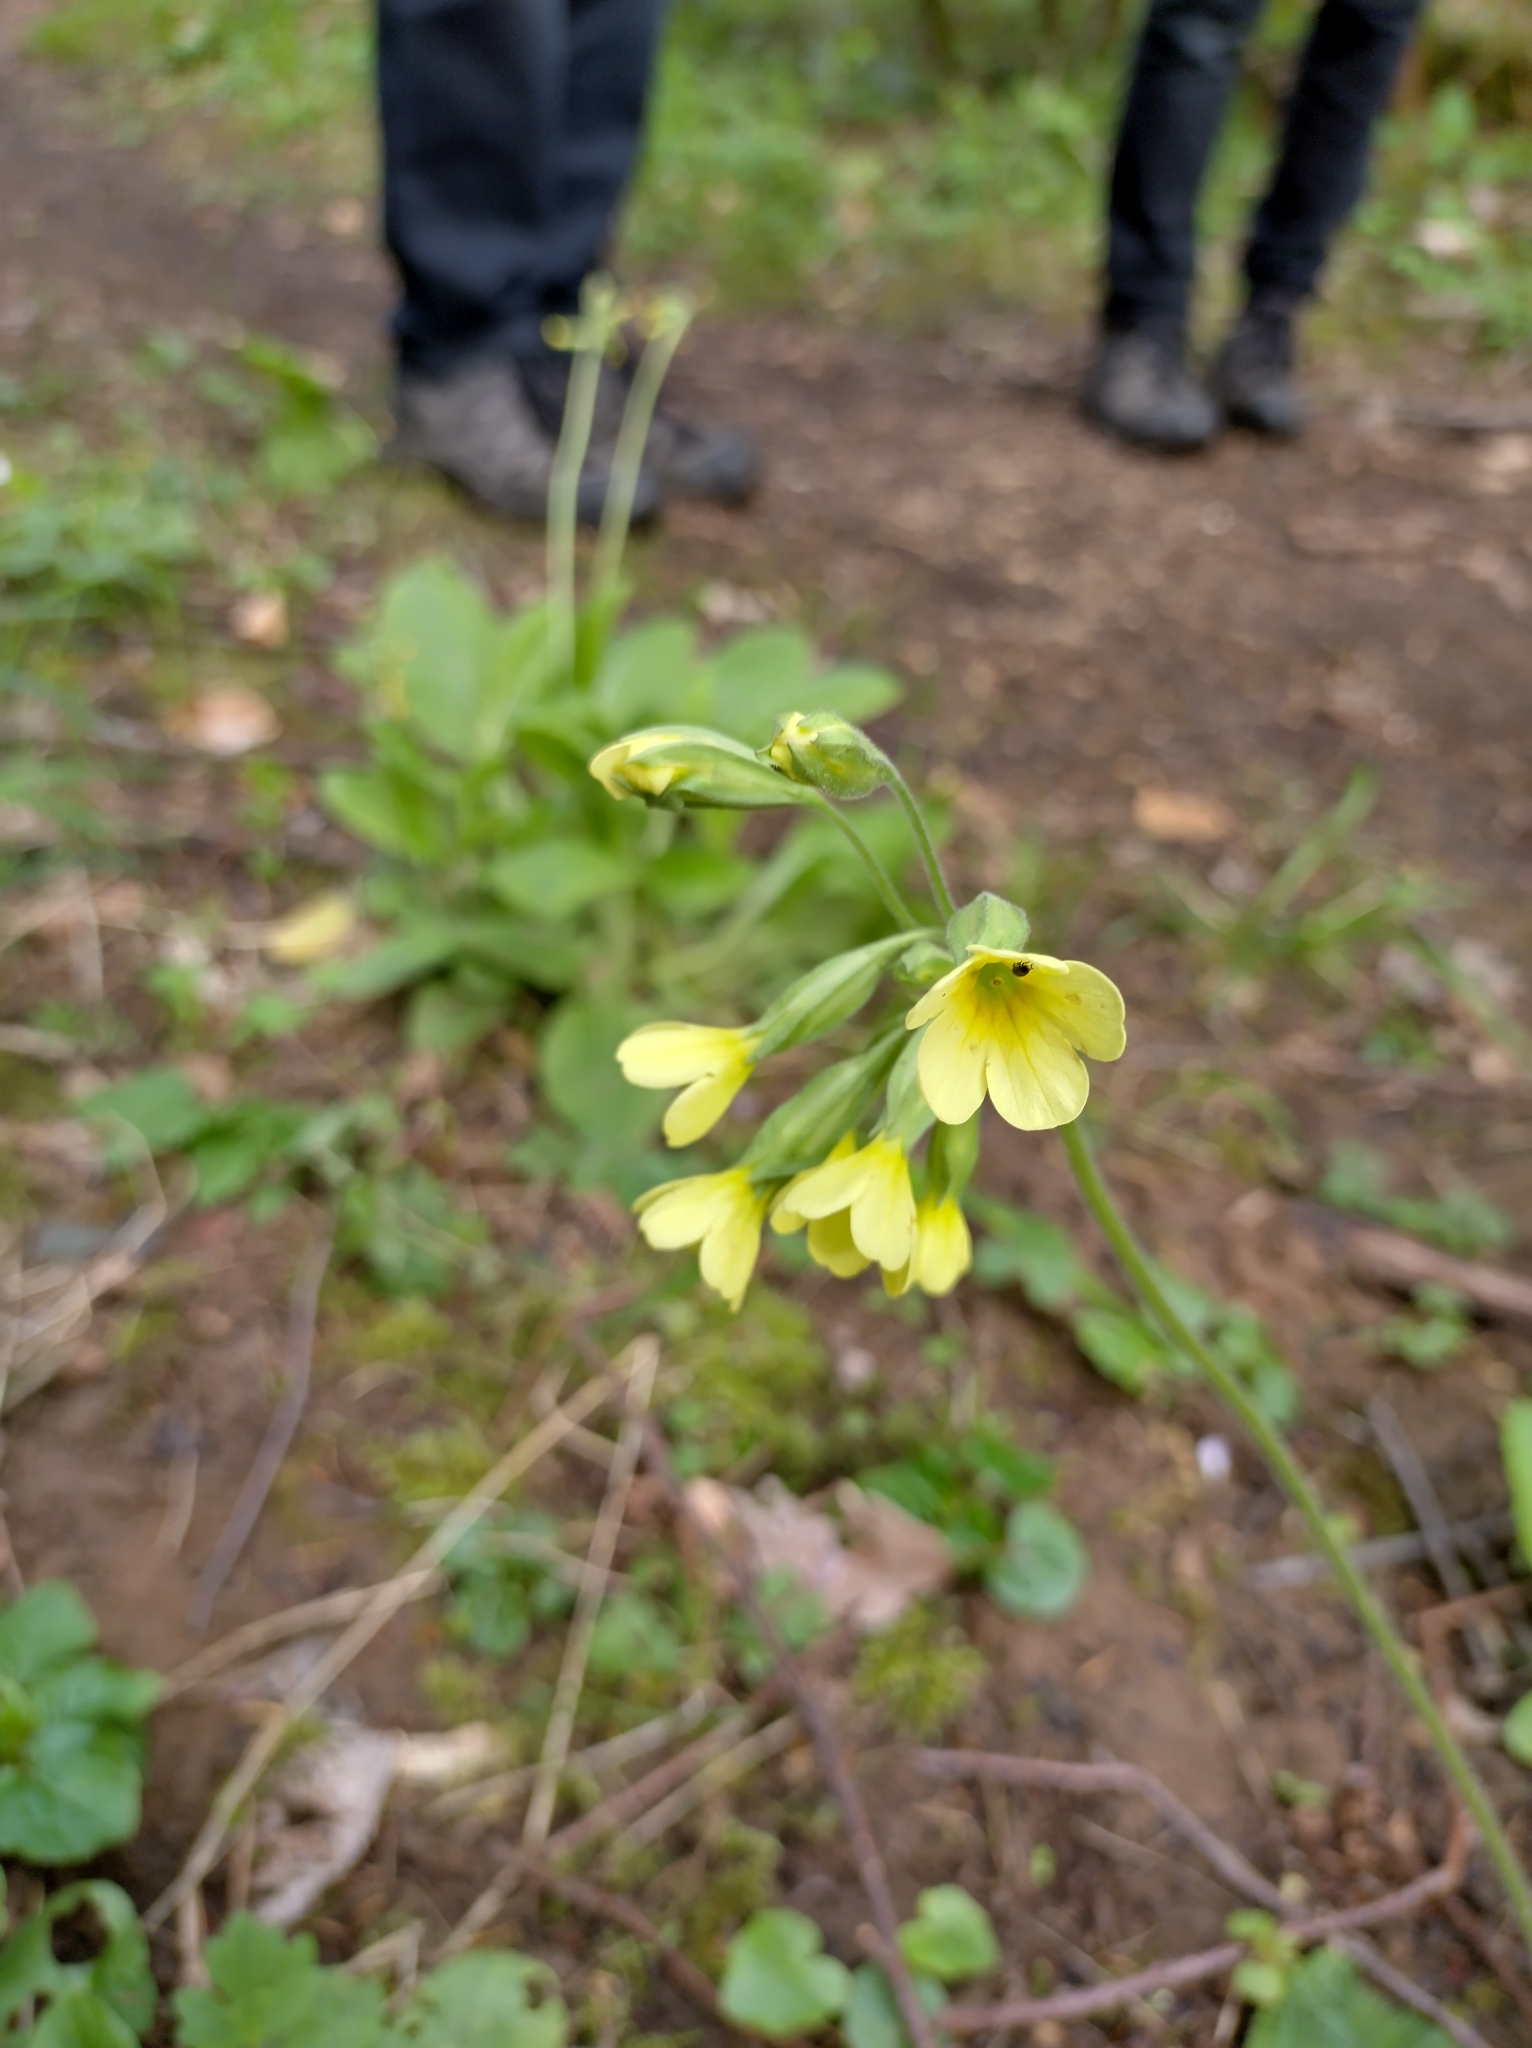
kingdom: Plantae
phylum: Tracheophyta
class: Magnoliopsida
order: Ericales
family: Primulaceae
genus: Primula
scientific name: Primula elatior
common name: Oxlip
